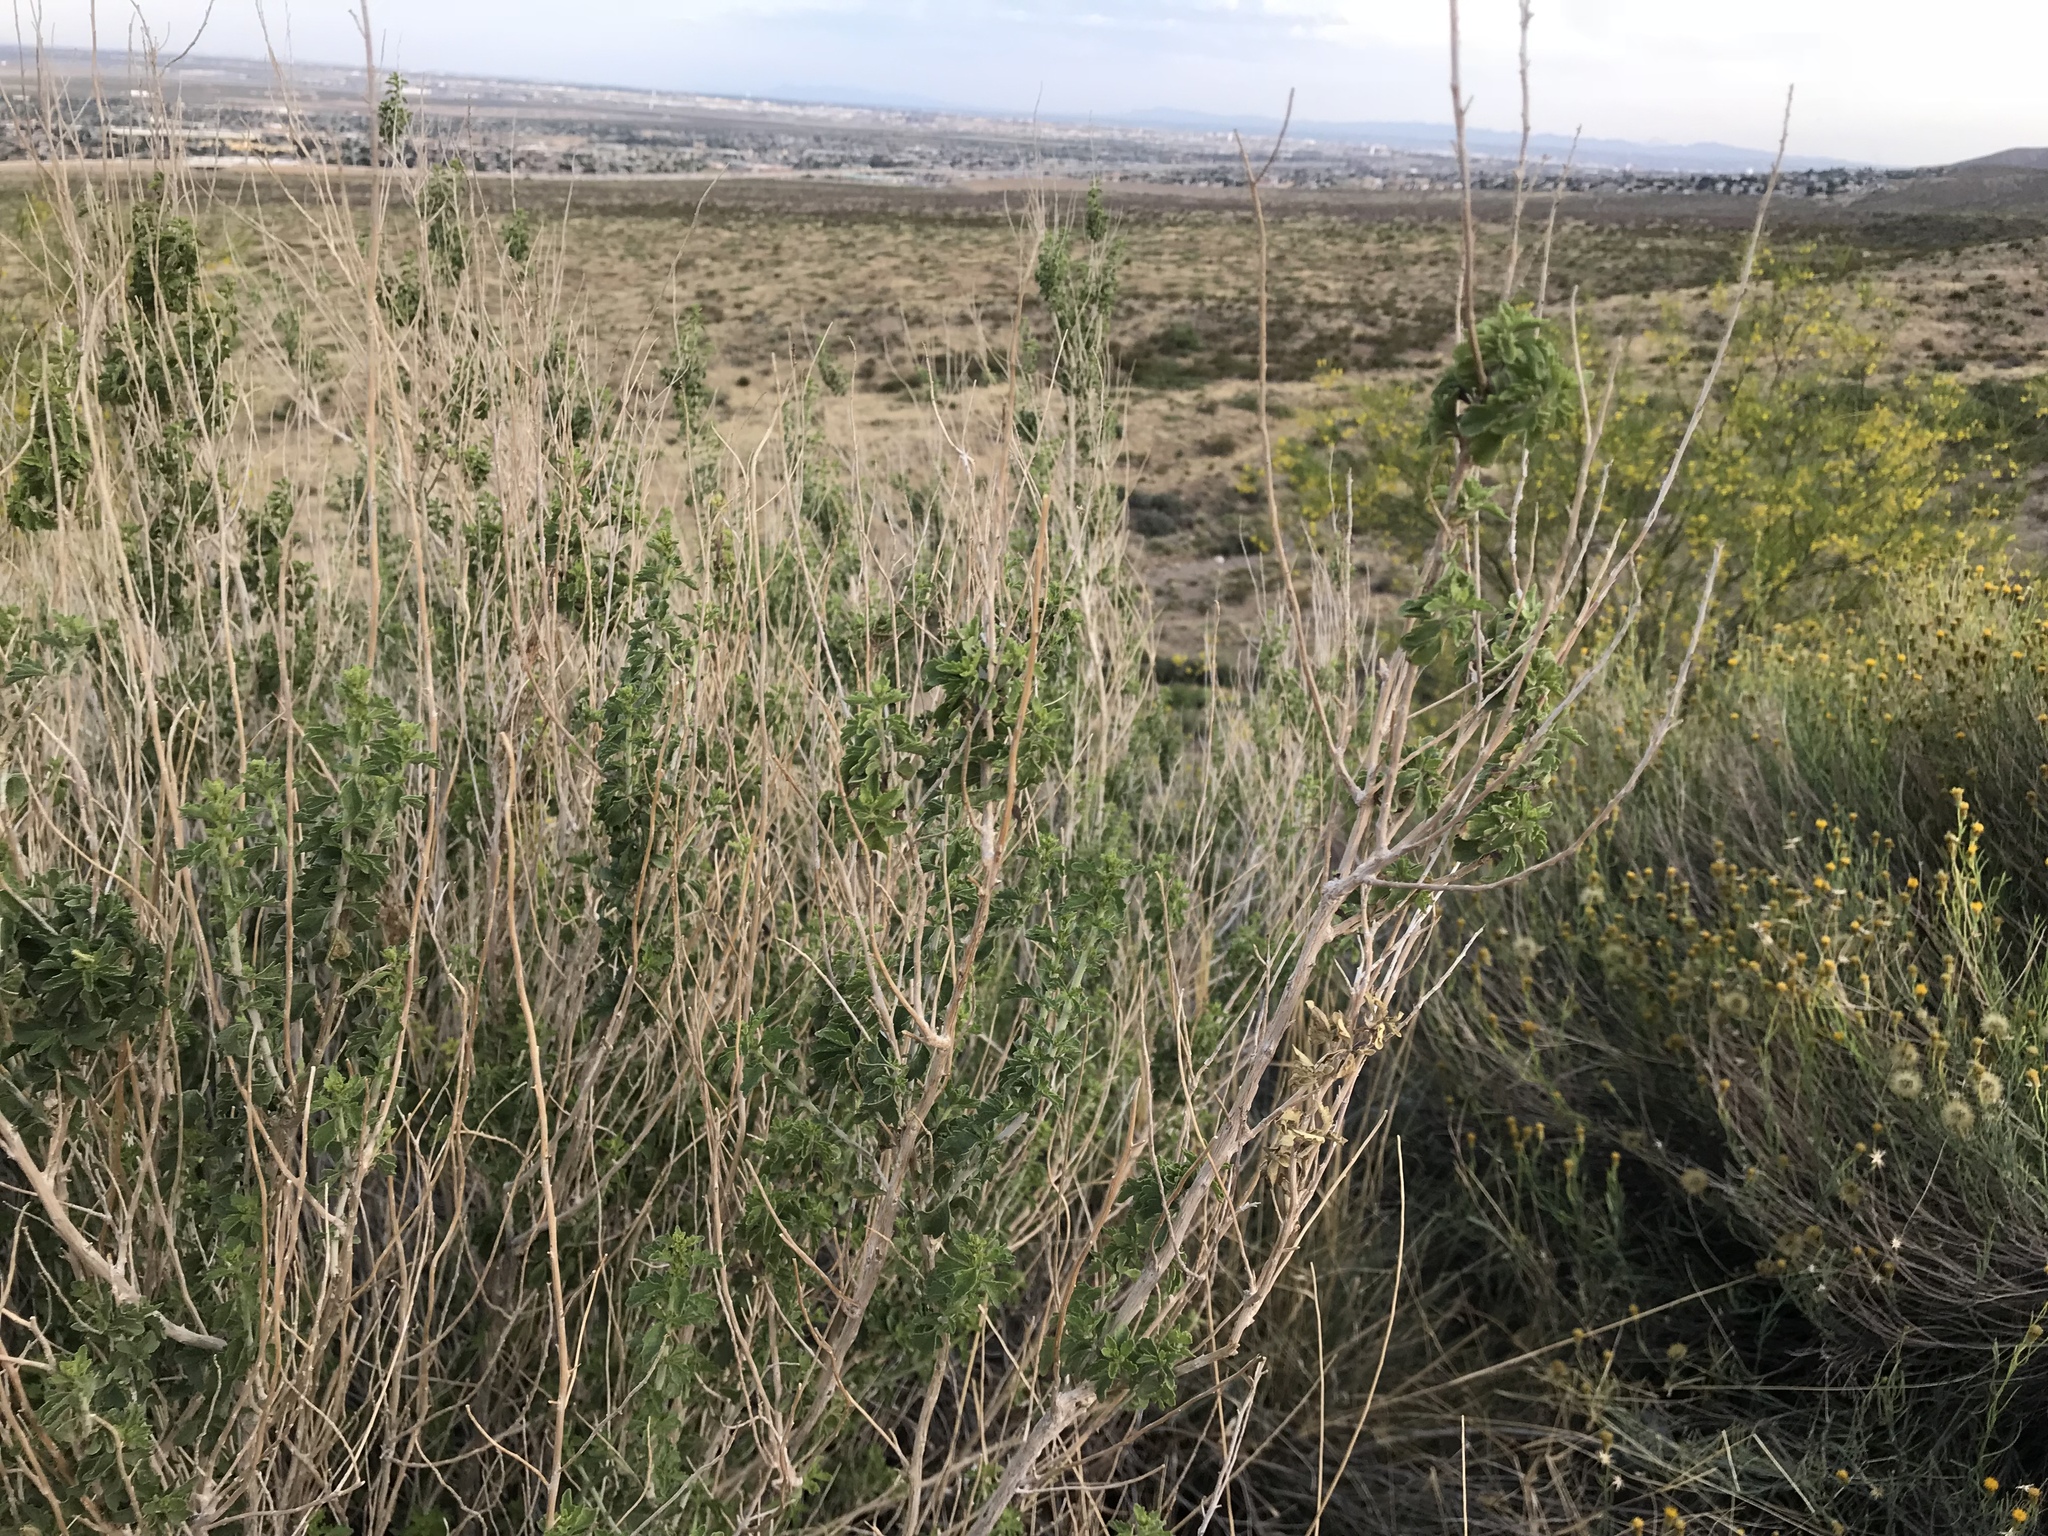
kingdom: Plantae
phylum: Tracheophyta
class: Magnoliopsida
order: Asterales
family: Asteraceae
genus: Brickellia
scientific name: Brickellia laciniata
